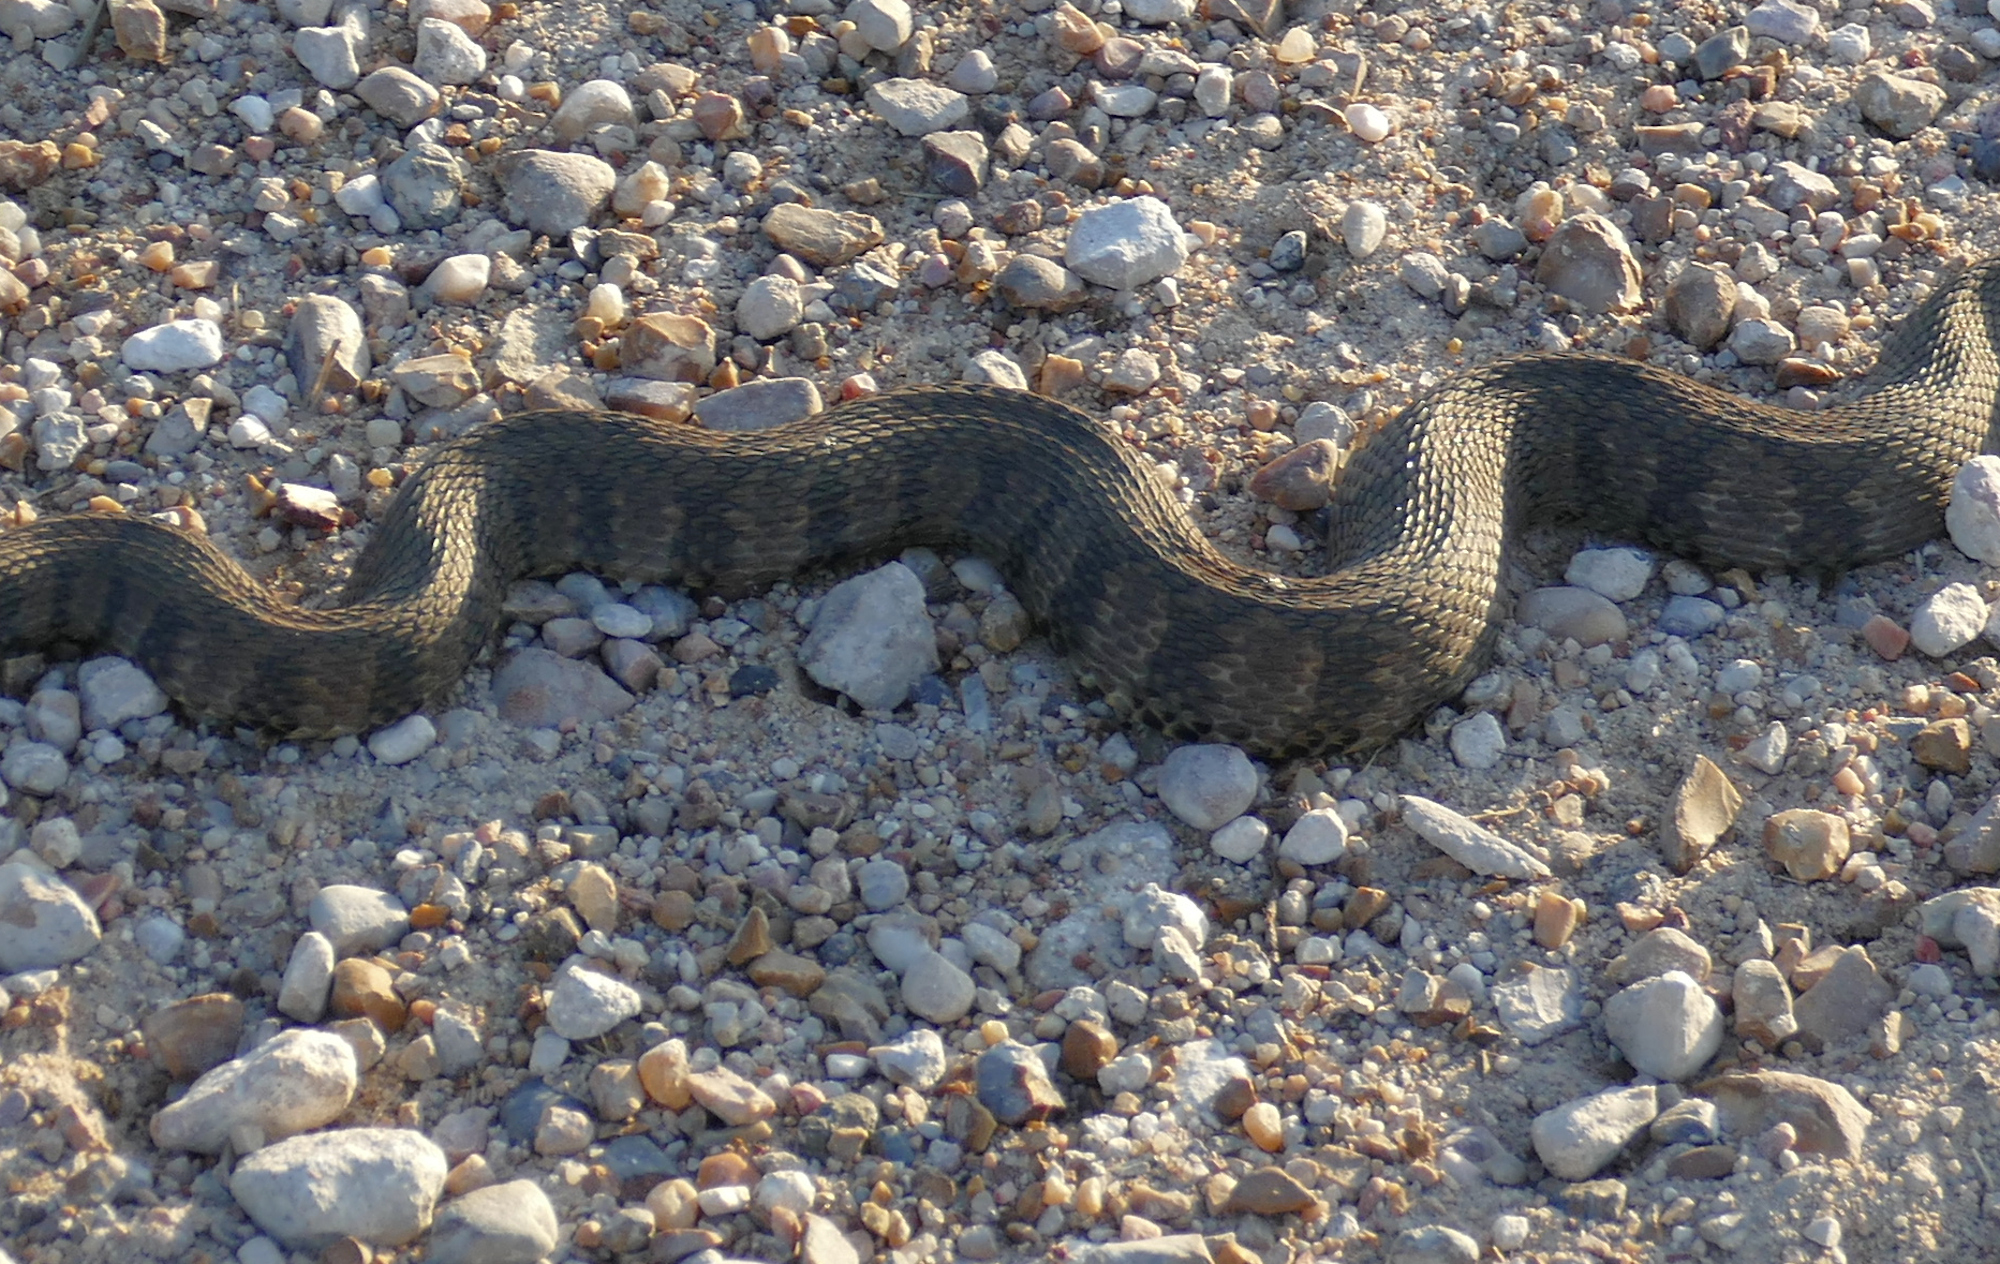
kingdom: Animalia
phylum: Chordata
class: Squamata
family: Colubridae
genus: Nerodia
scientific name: Nerodia rhombifer
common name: Diamondback water snake
